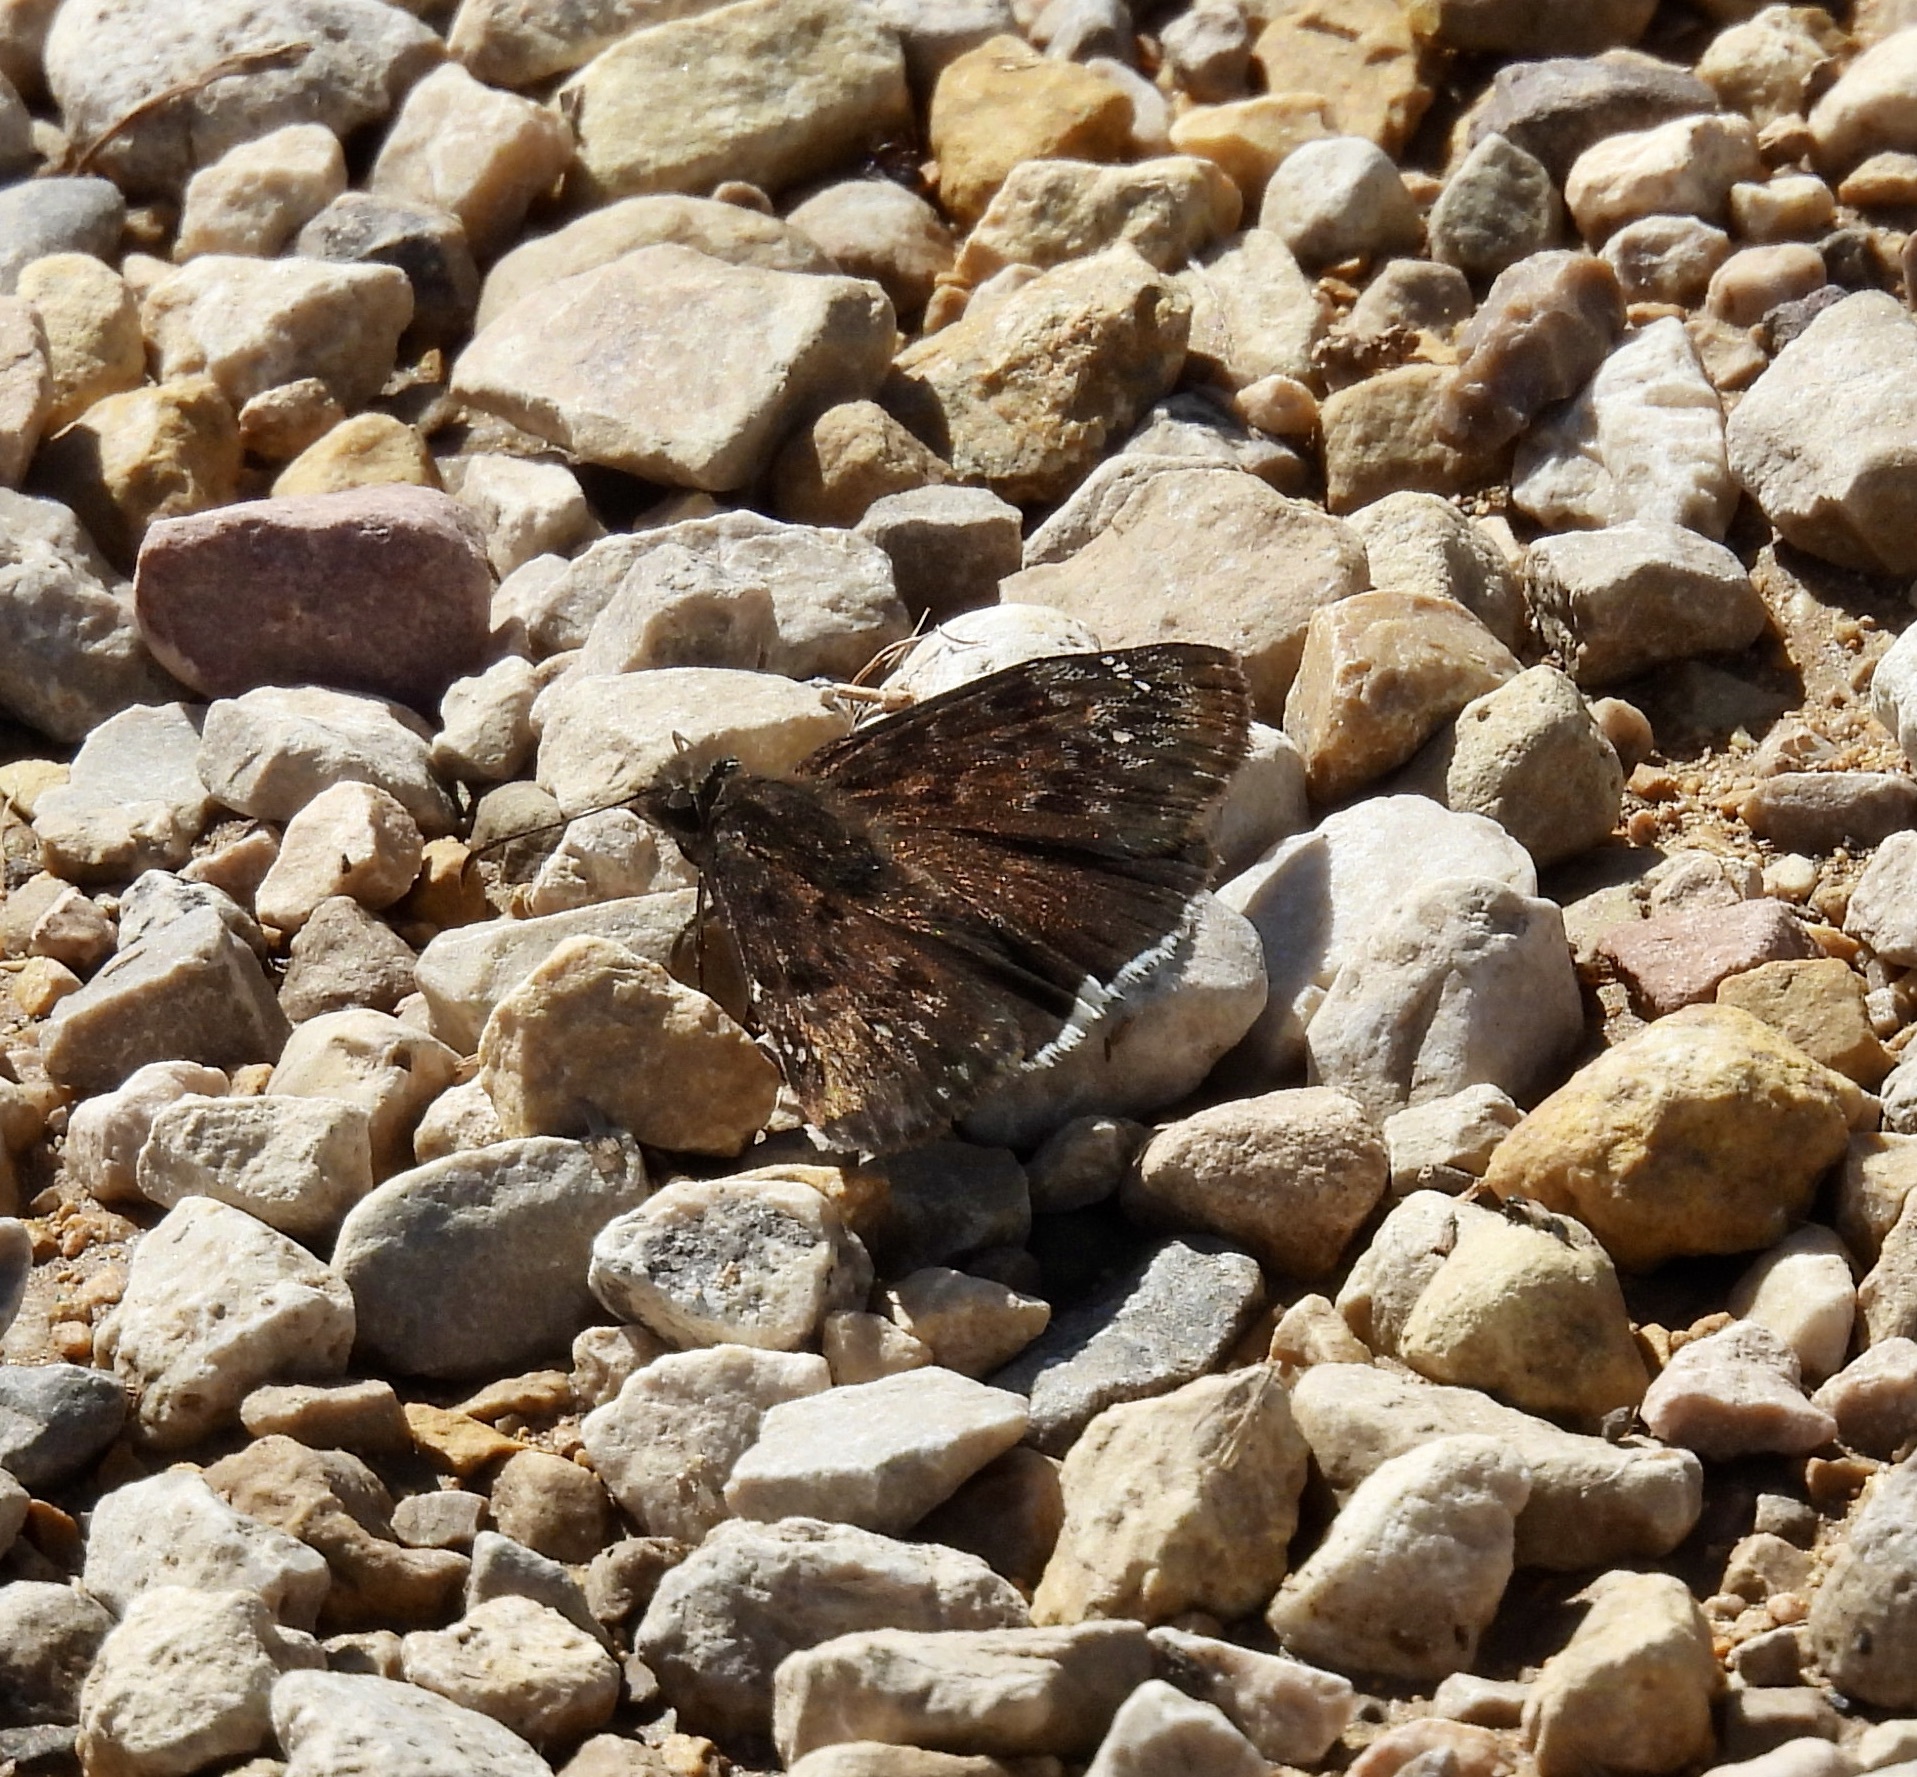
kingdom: Animalia
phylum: Arthropoda
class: Insecta
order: Lepidoptera
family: Hesperiidae
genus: Erynnis
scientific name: Erynnis tristis
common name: Mournful duskywing
